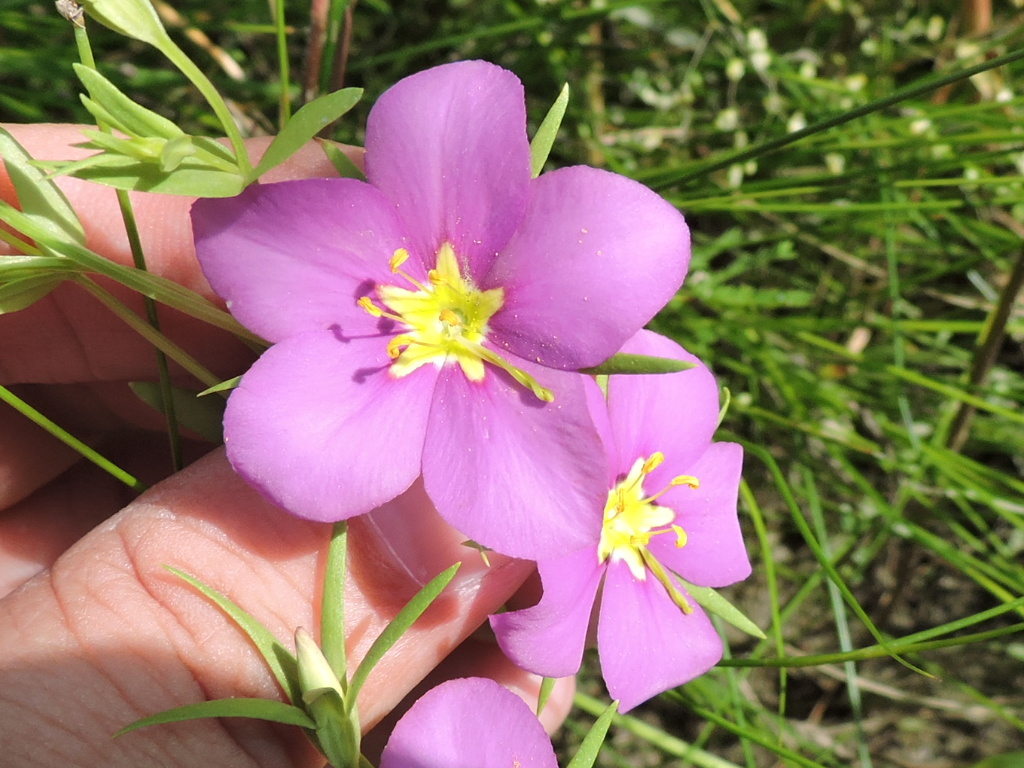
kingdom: Plantae
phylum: Tracheophyta
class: Magnoliopsida
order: Gentianales
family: Gentianaceae
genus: Sabatia
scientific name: Sabatia campestris
